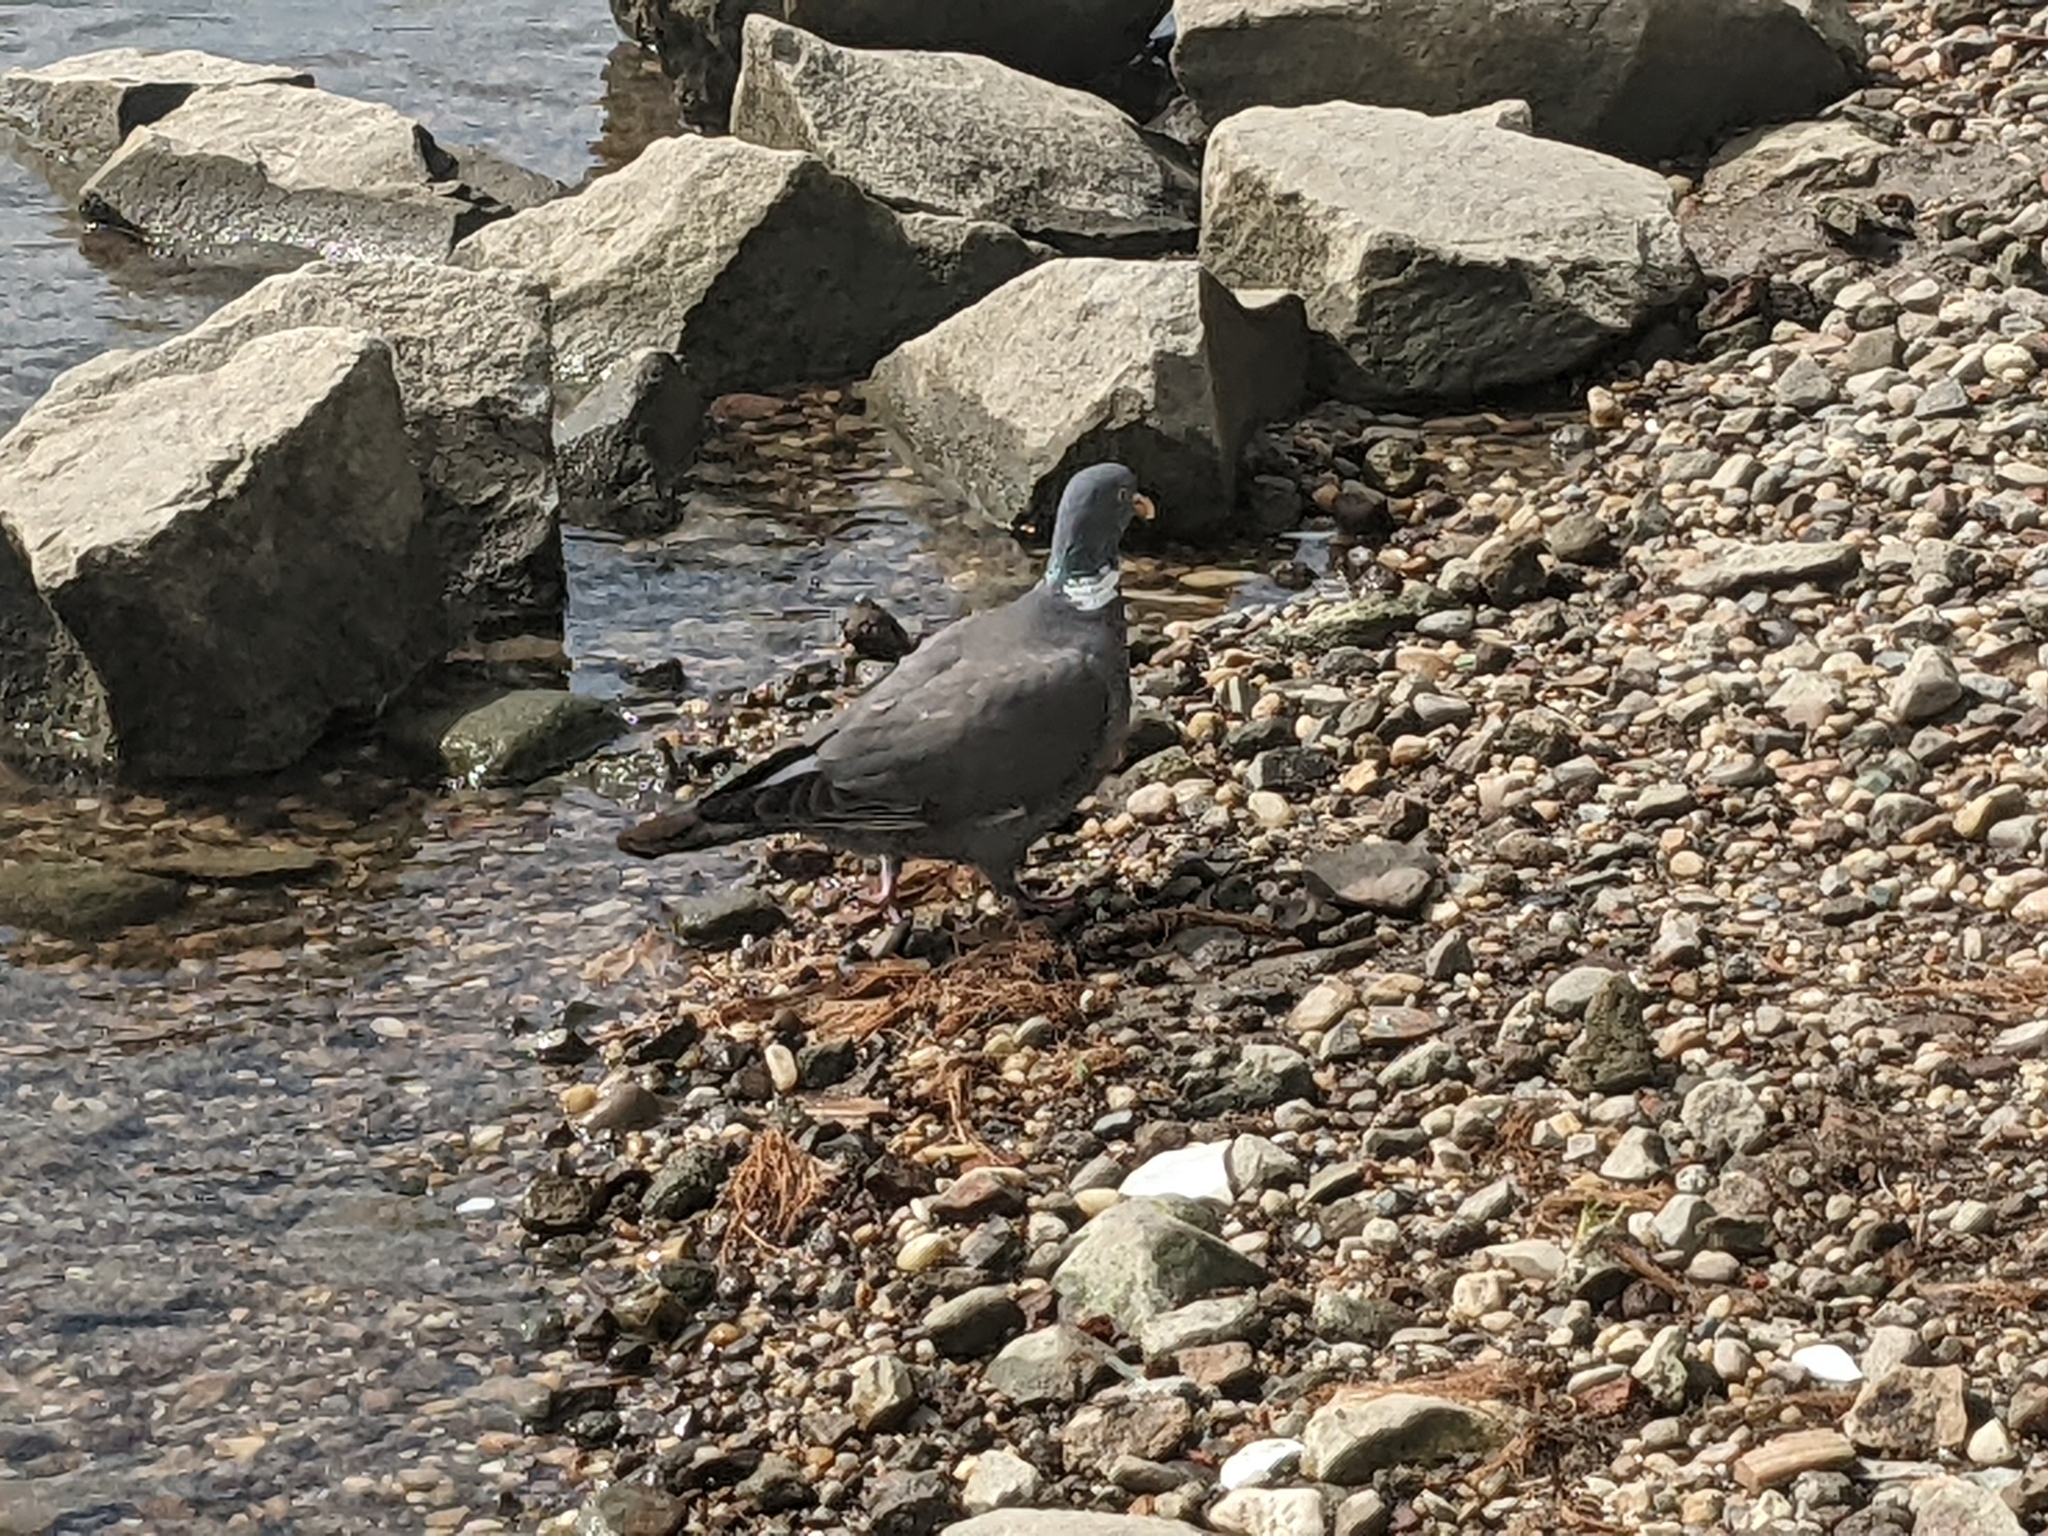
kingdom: Animalia
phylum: Chordata
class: Aves
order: Columbiformes
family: Columbidae
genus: Columba
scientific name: Columba palumbus
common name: Common wood pigeon
